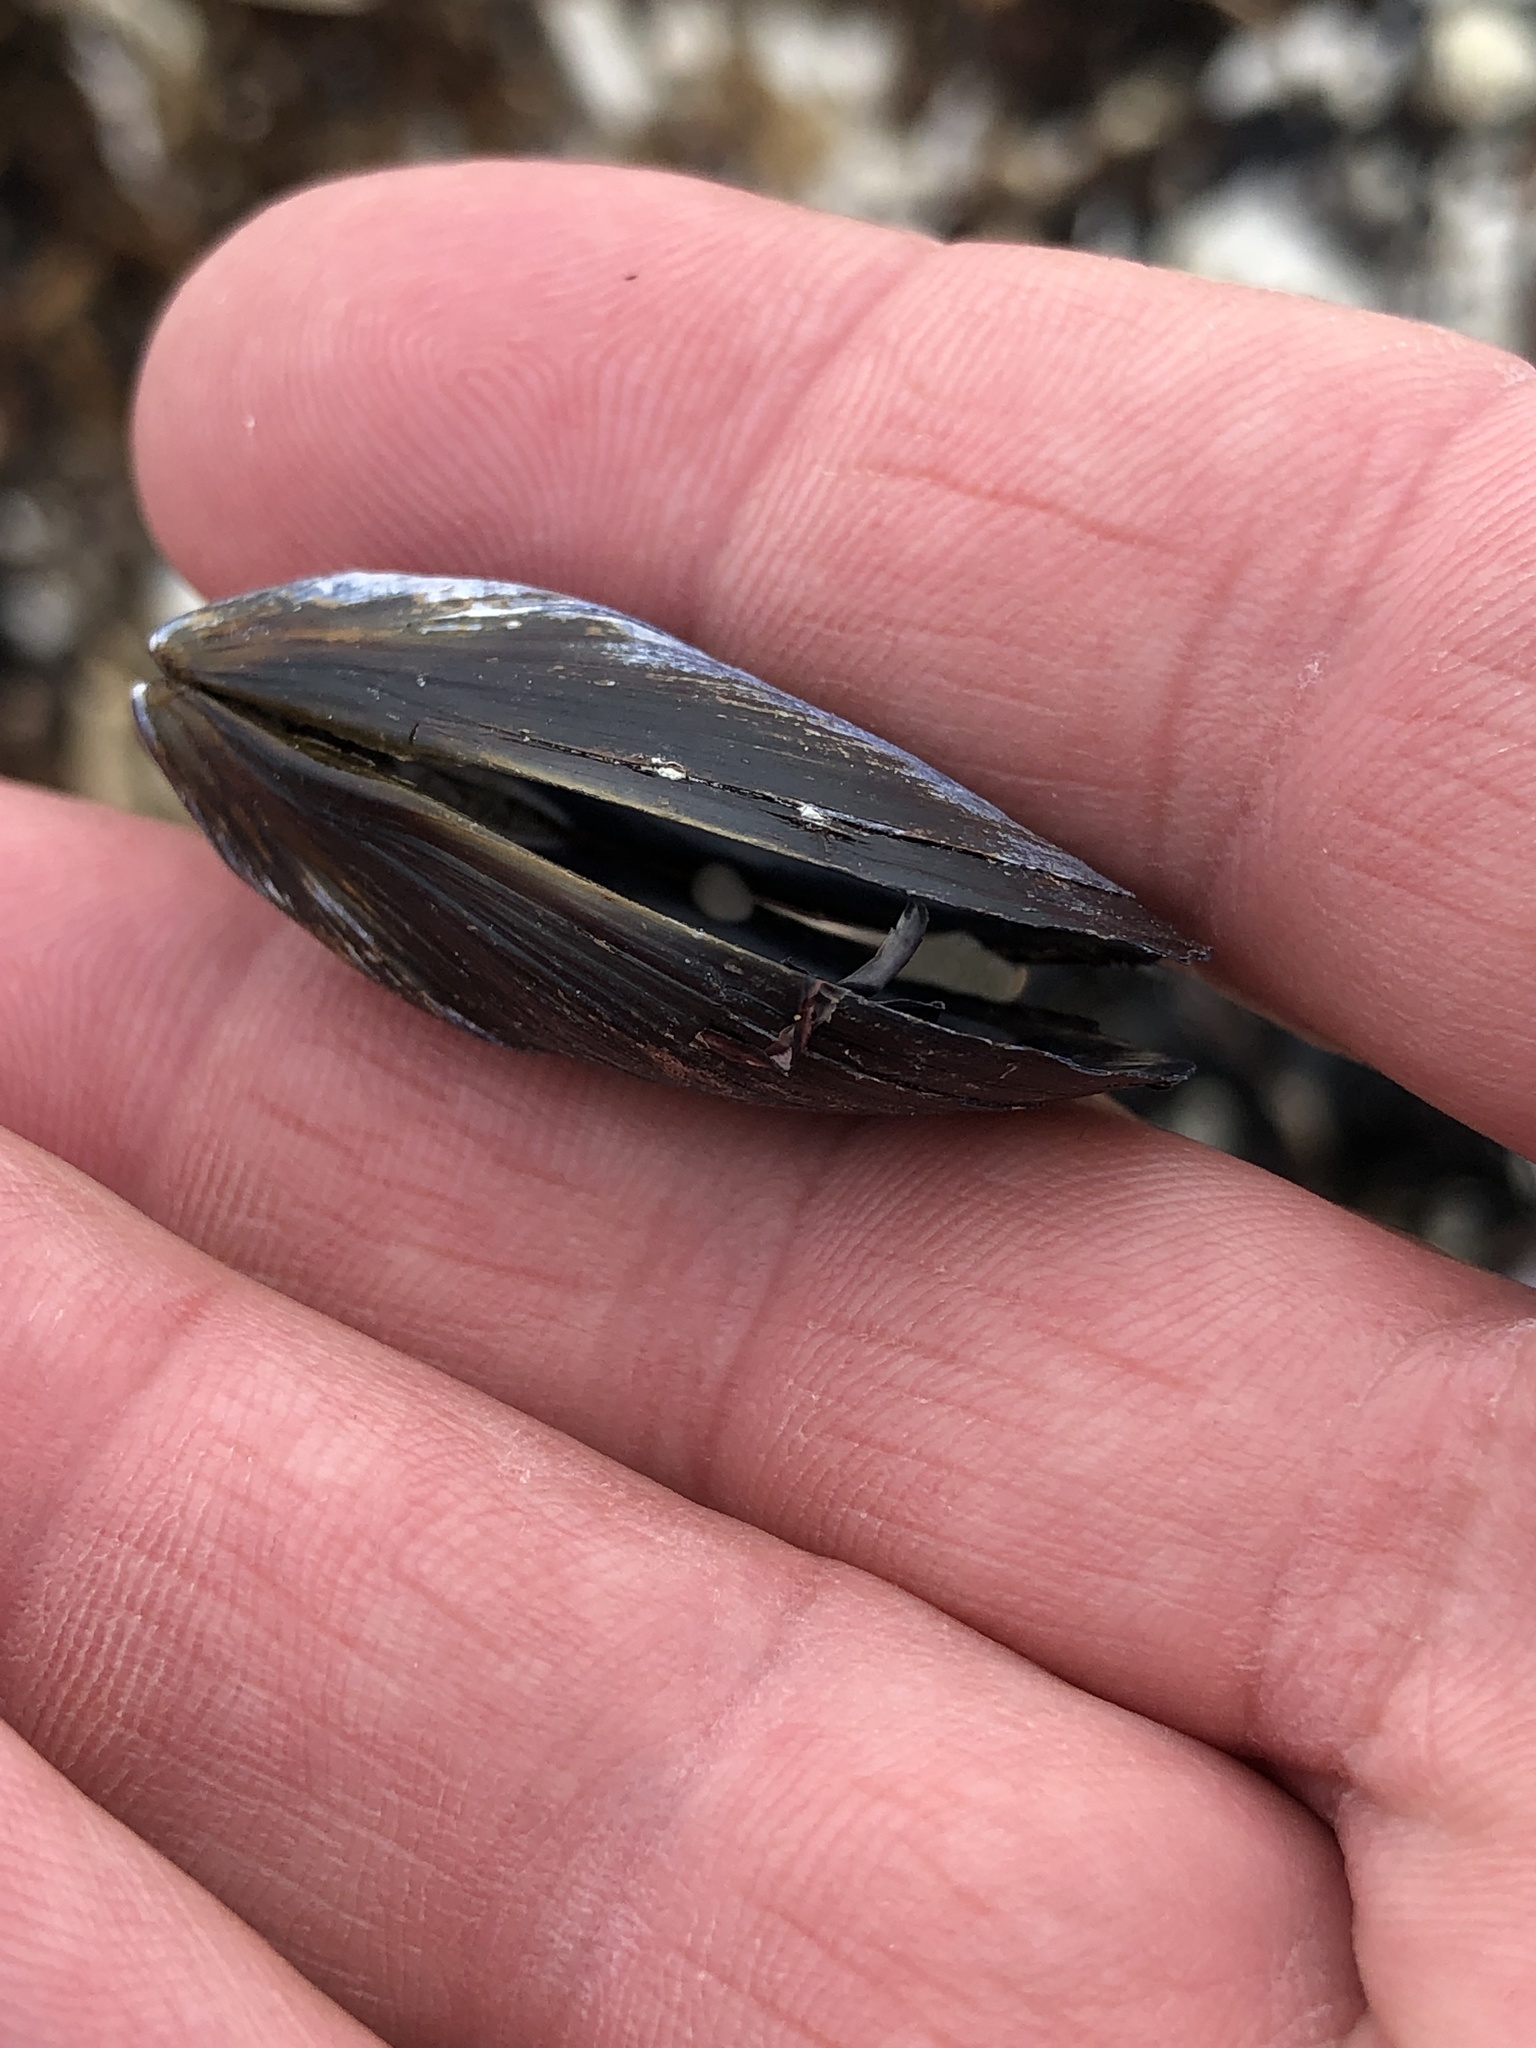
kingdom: Animalia
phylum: Mollusca
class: Bivalvia
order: Mytilida
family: Mytilidae
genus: Mytilus
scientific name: Mytilus planulatus
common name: Australian mussel
